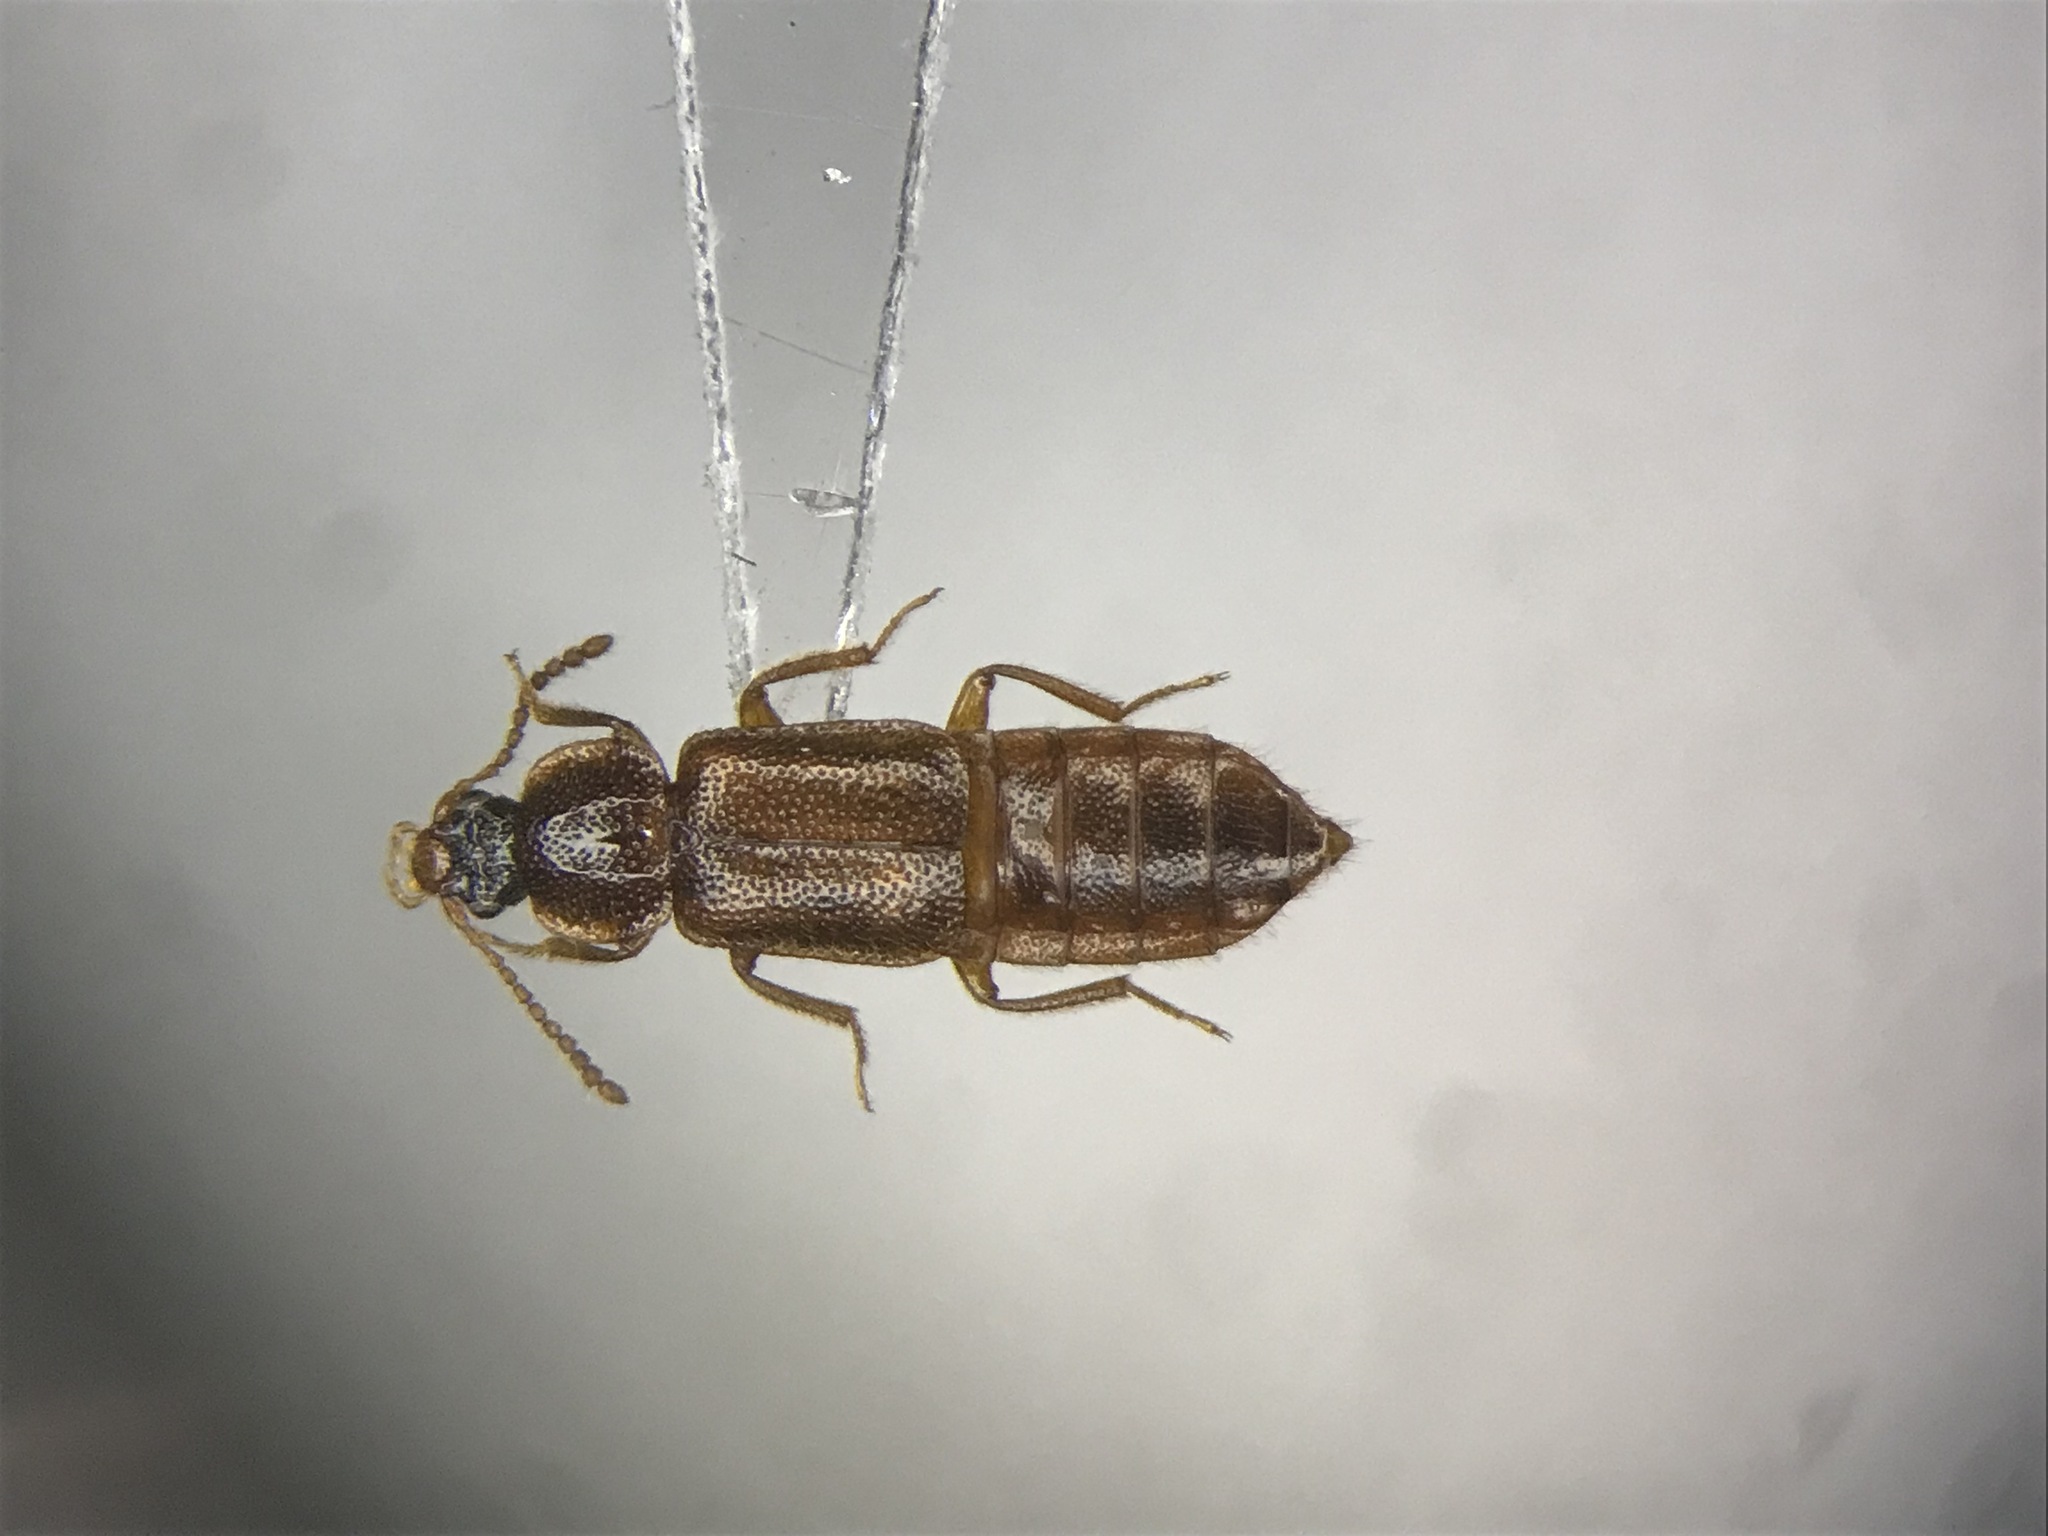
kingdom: Animalia
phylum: Arthropoda
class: Insecta
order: Coleoptera
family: Staphylinidae
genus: Acidota
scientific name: Acidota subcarinata
